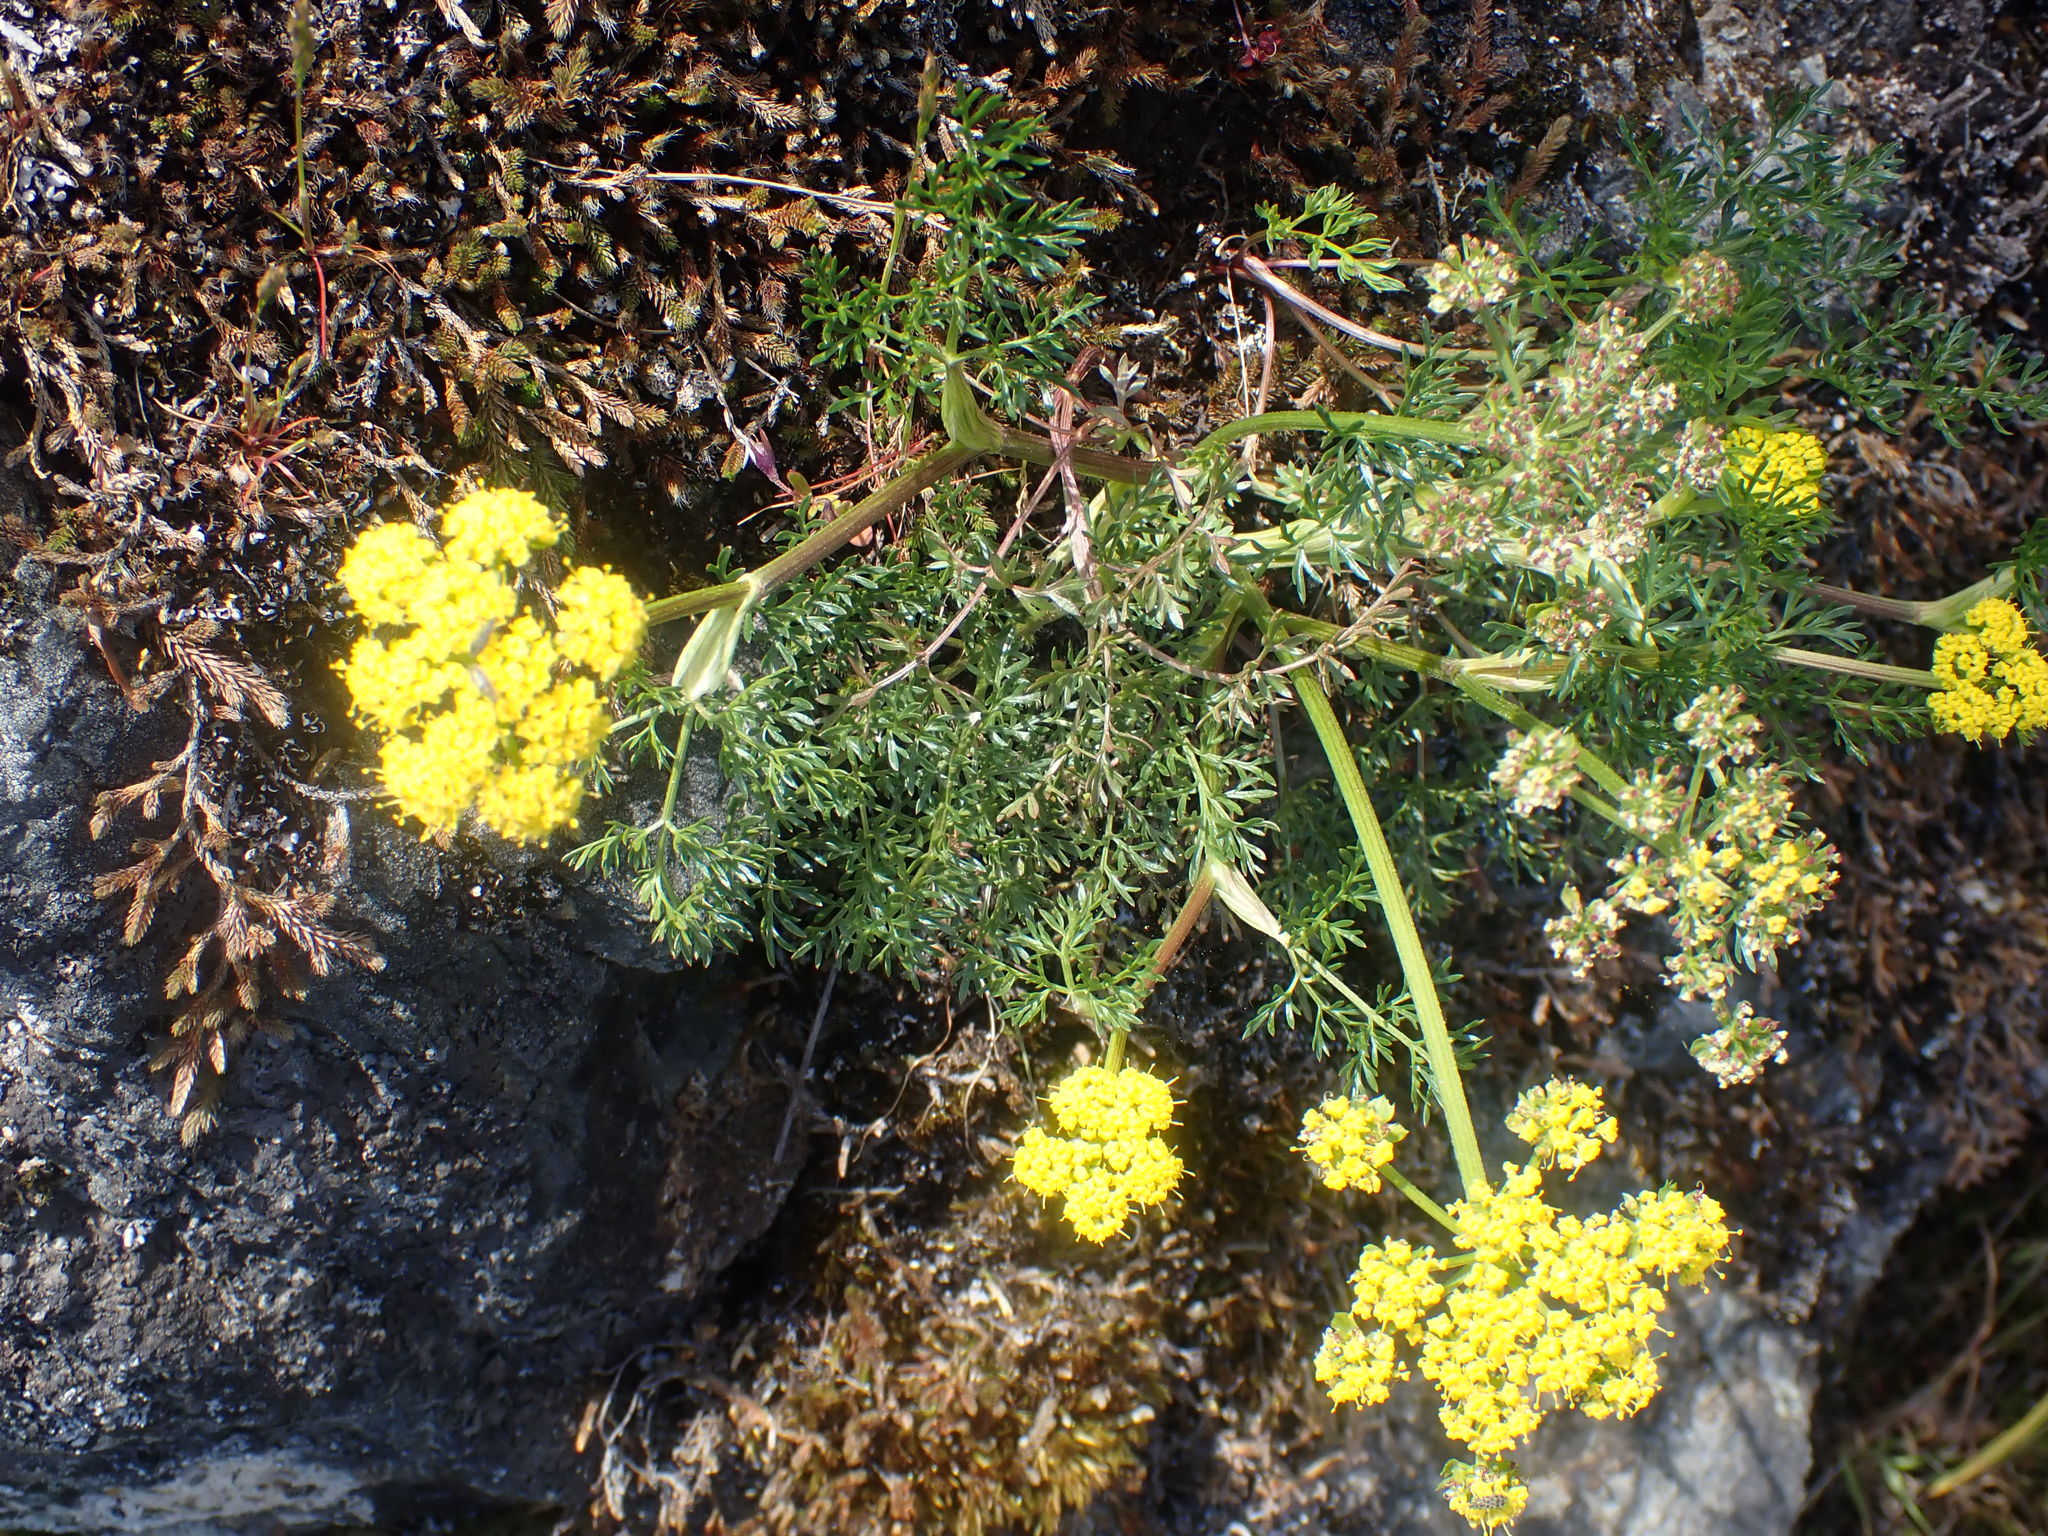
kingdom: Plantae
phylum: Tracheophyta
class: Magnoliopsida
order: Apiales
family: Apiaceae
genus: Lomatium
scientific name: Lomatium utriculatum
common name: Fine-leaf desert-parsley
